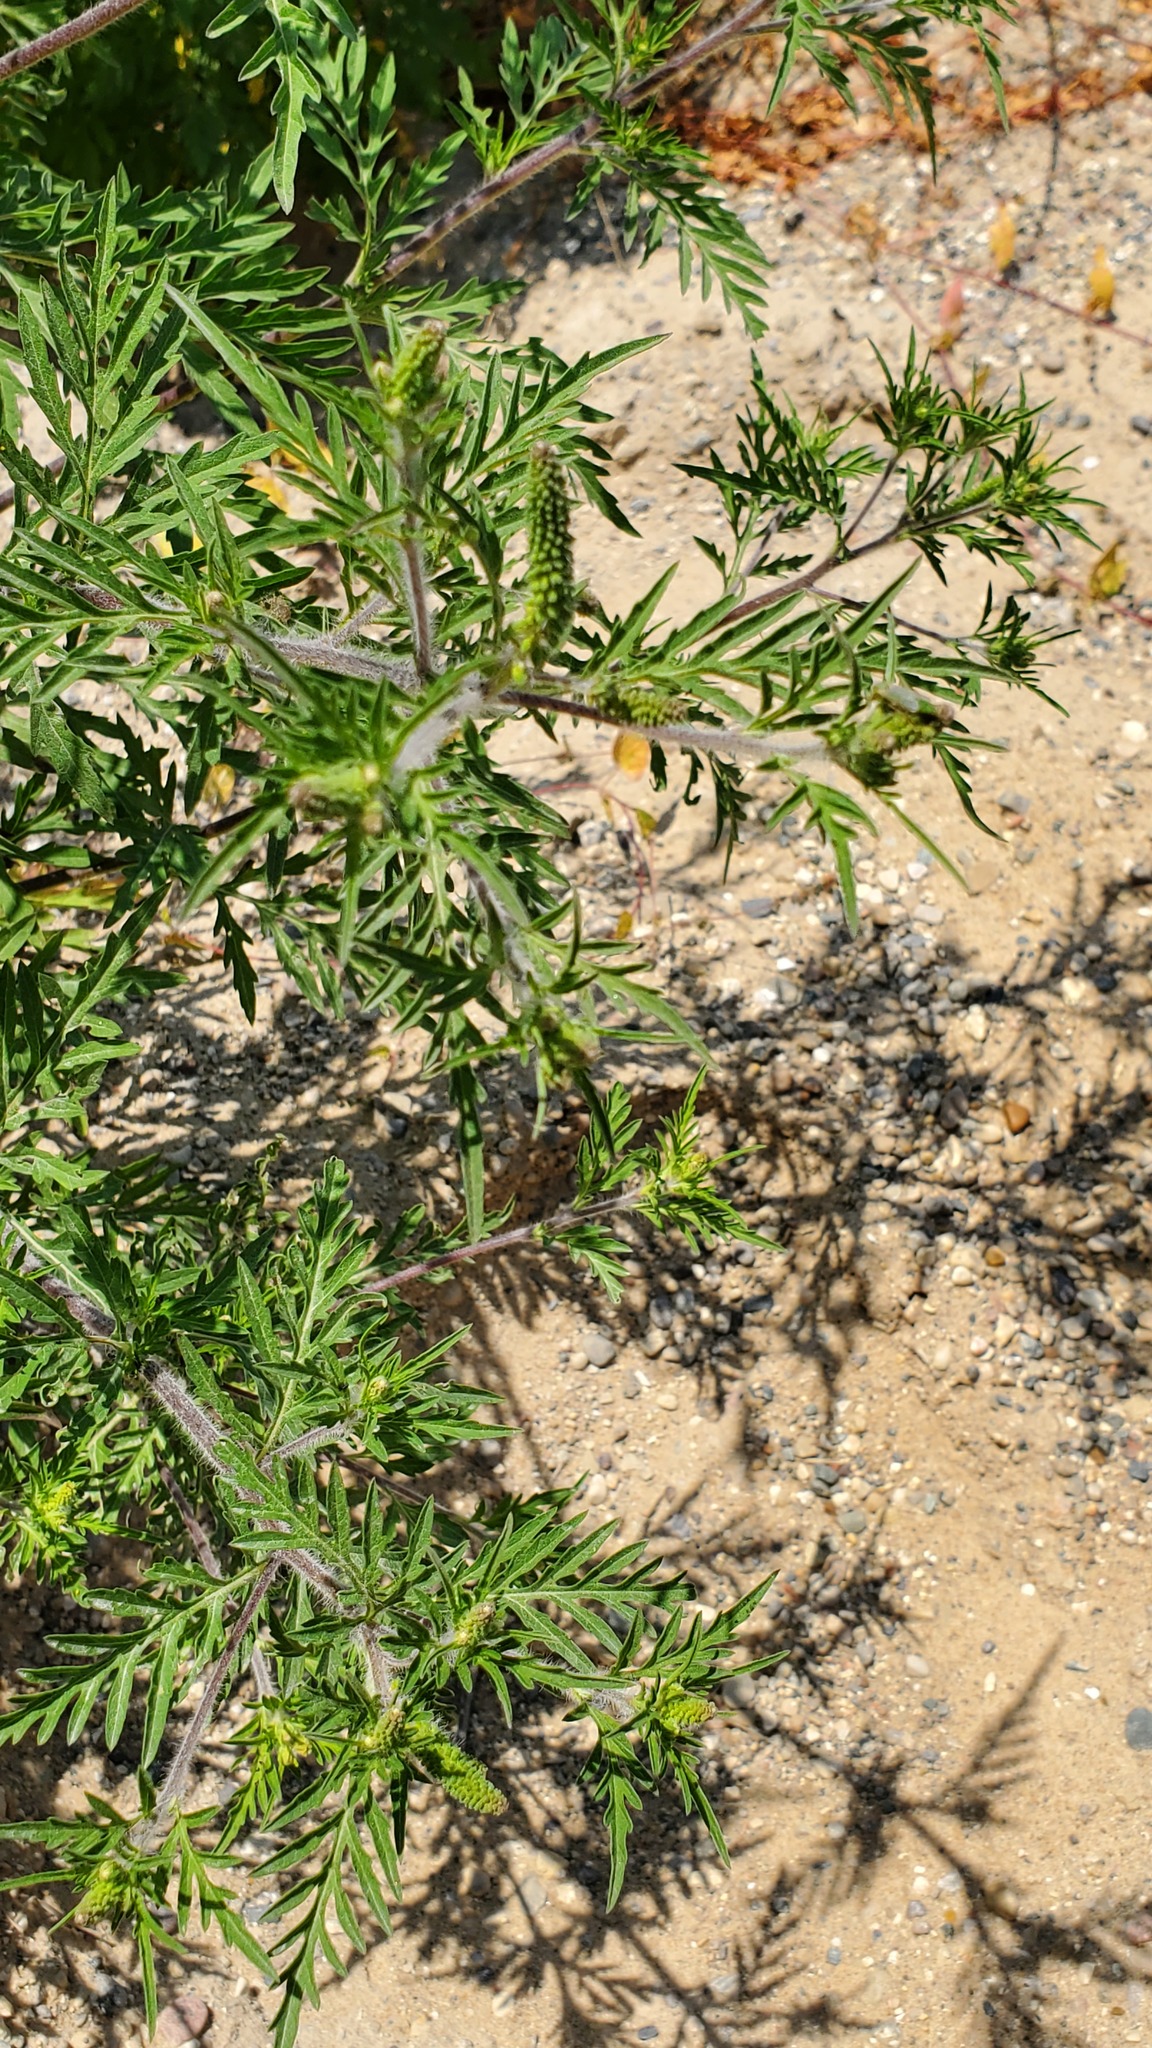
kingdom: Plantae
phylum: Tracheophyta
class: Magnoliopsida
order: Asterales
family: Asteraceae
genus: Ambrosia
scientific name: Ambrosia artemisiifolia
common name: Annual ragweed
